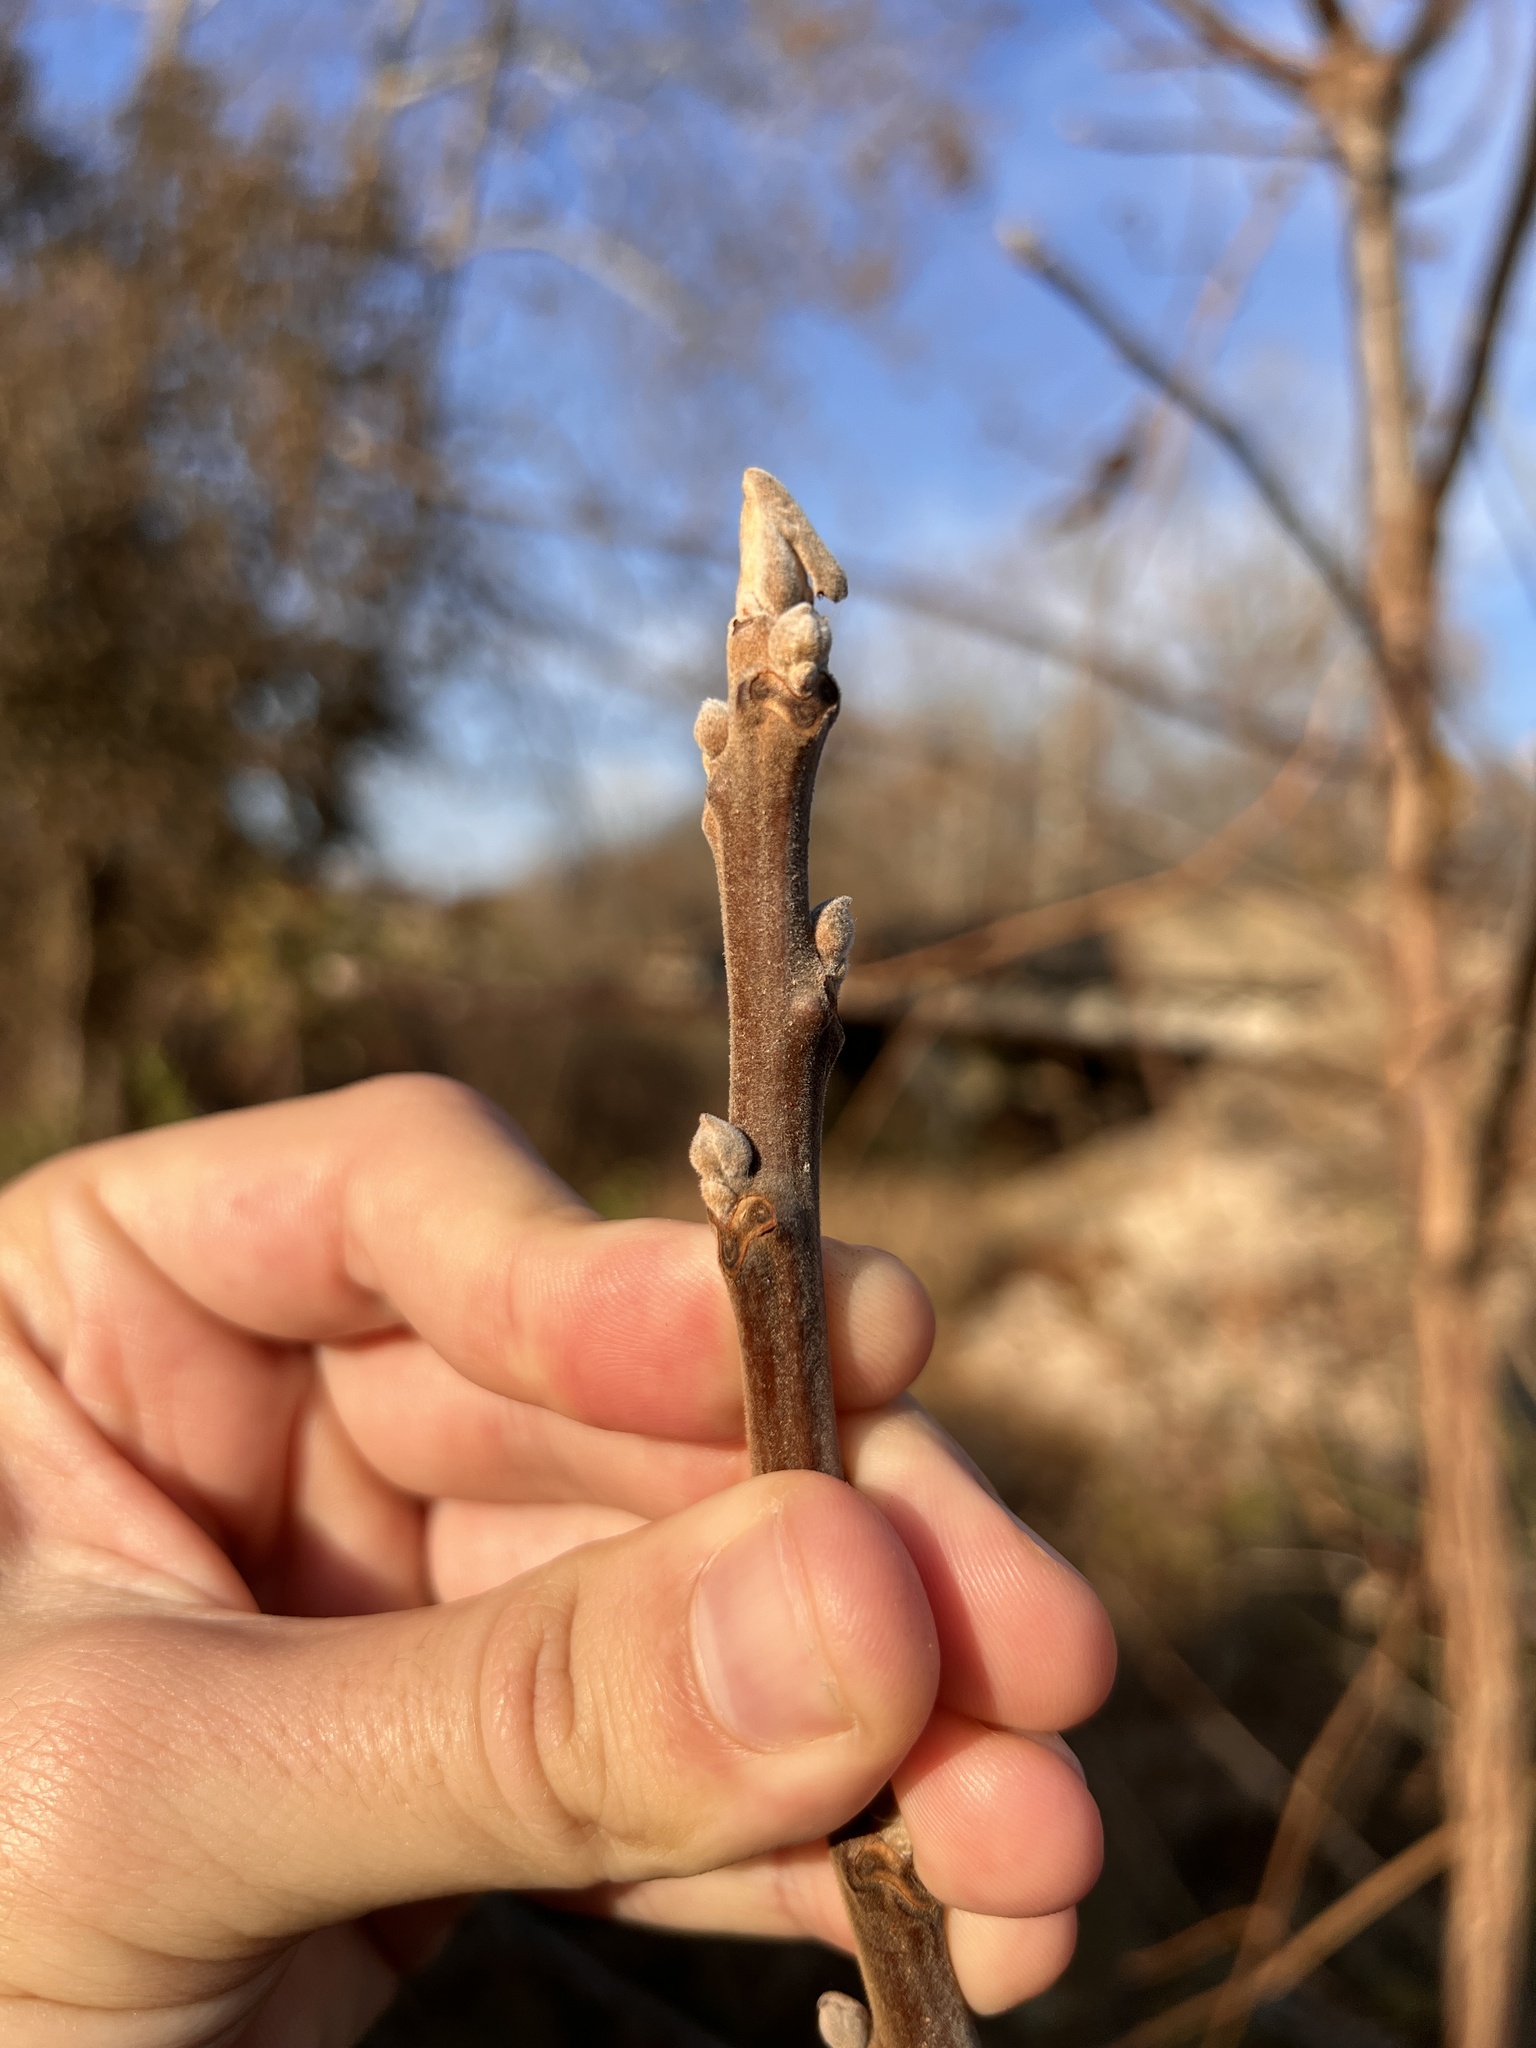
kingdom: Plantae
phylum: Tracheophyta
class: Magnoliopsida
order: Fagales
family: Juglandaceae
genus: Juglans
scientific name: Juglans nigra
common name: Black walnut
